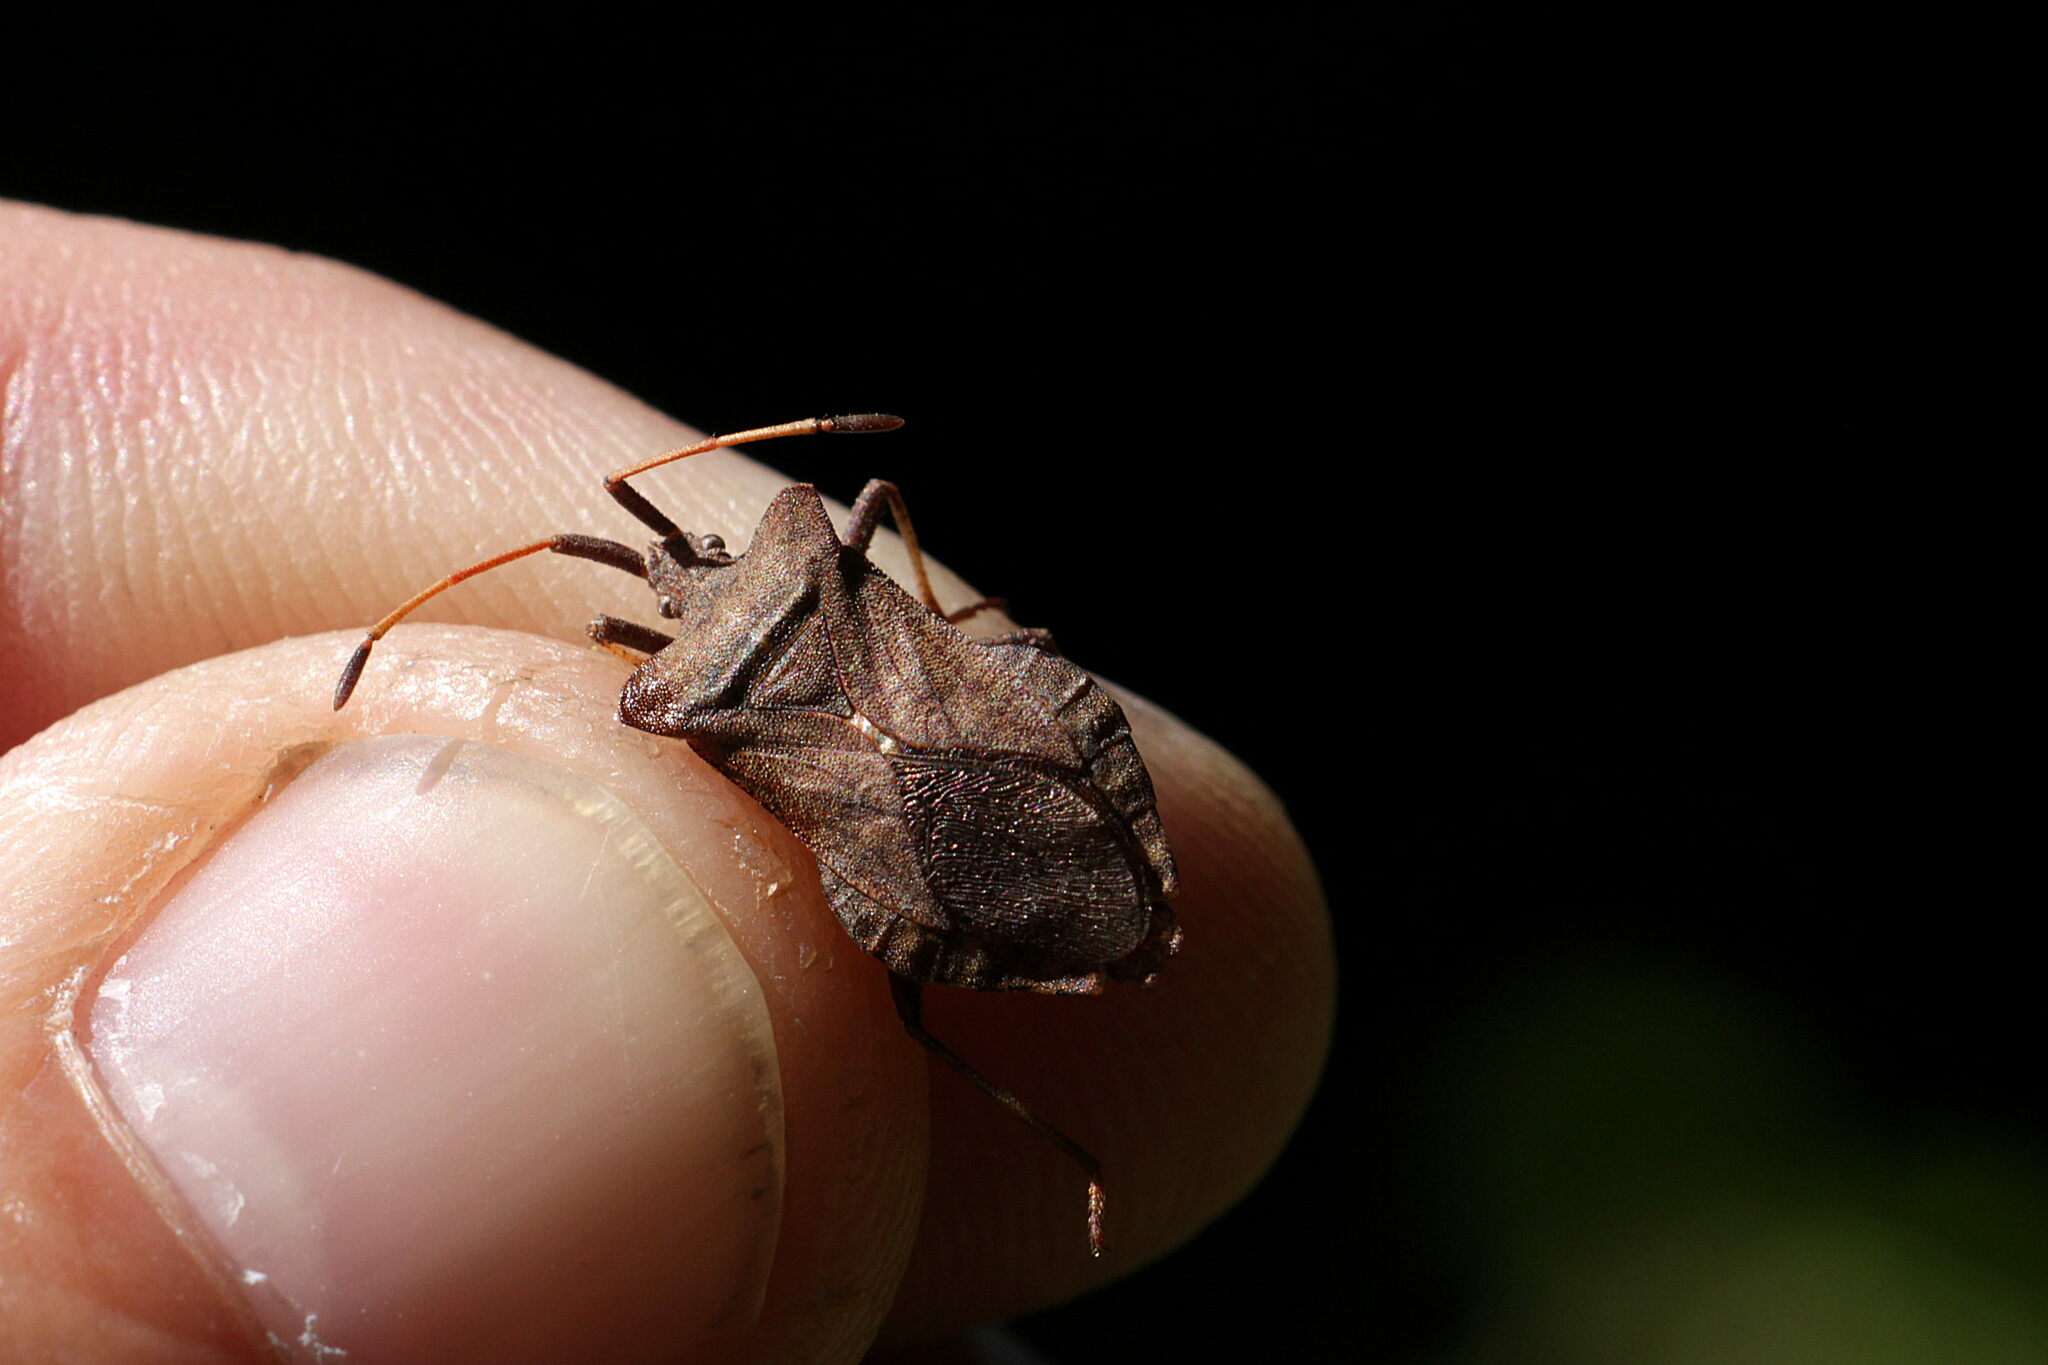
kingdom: Animalia
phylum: Arthropoda
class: Insecta
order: Hemiptera
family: Coreidae
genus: Coreus
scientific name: Coreus marginatus
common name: Dock bug
